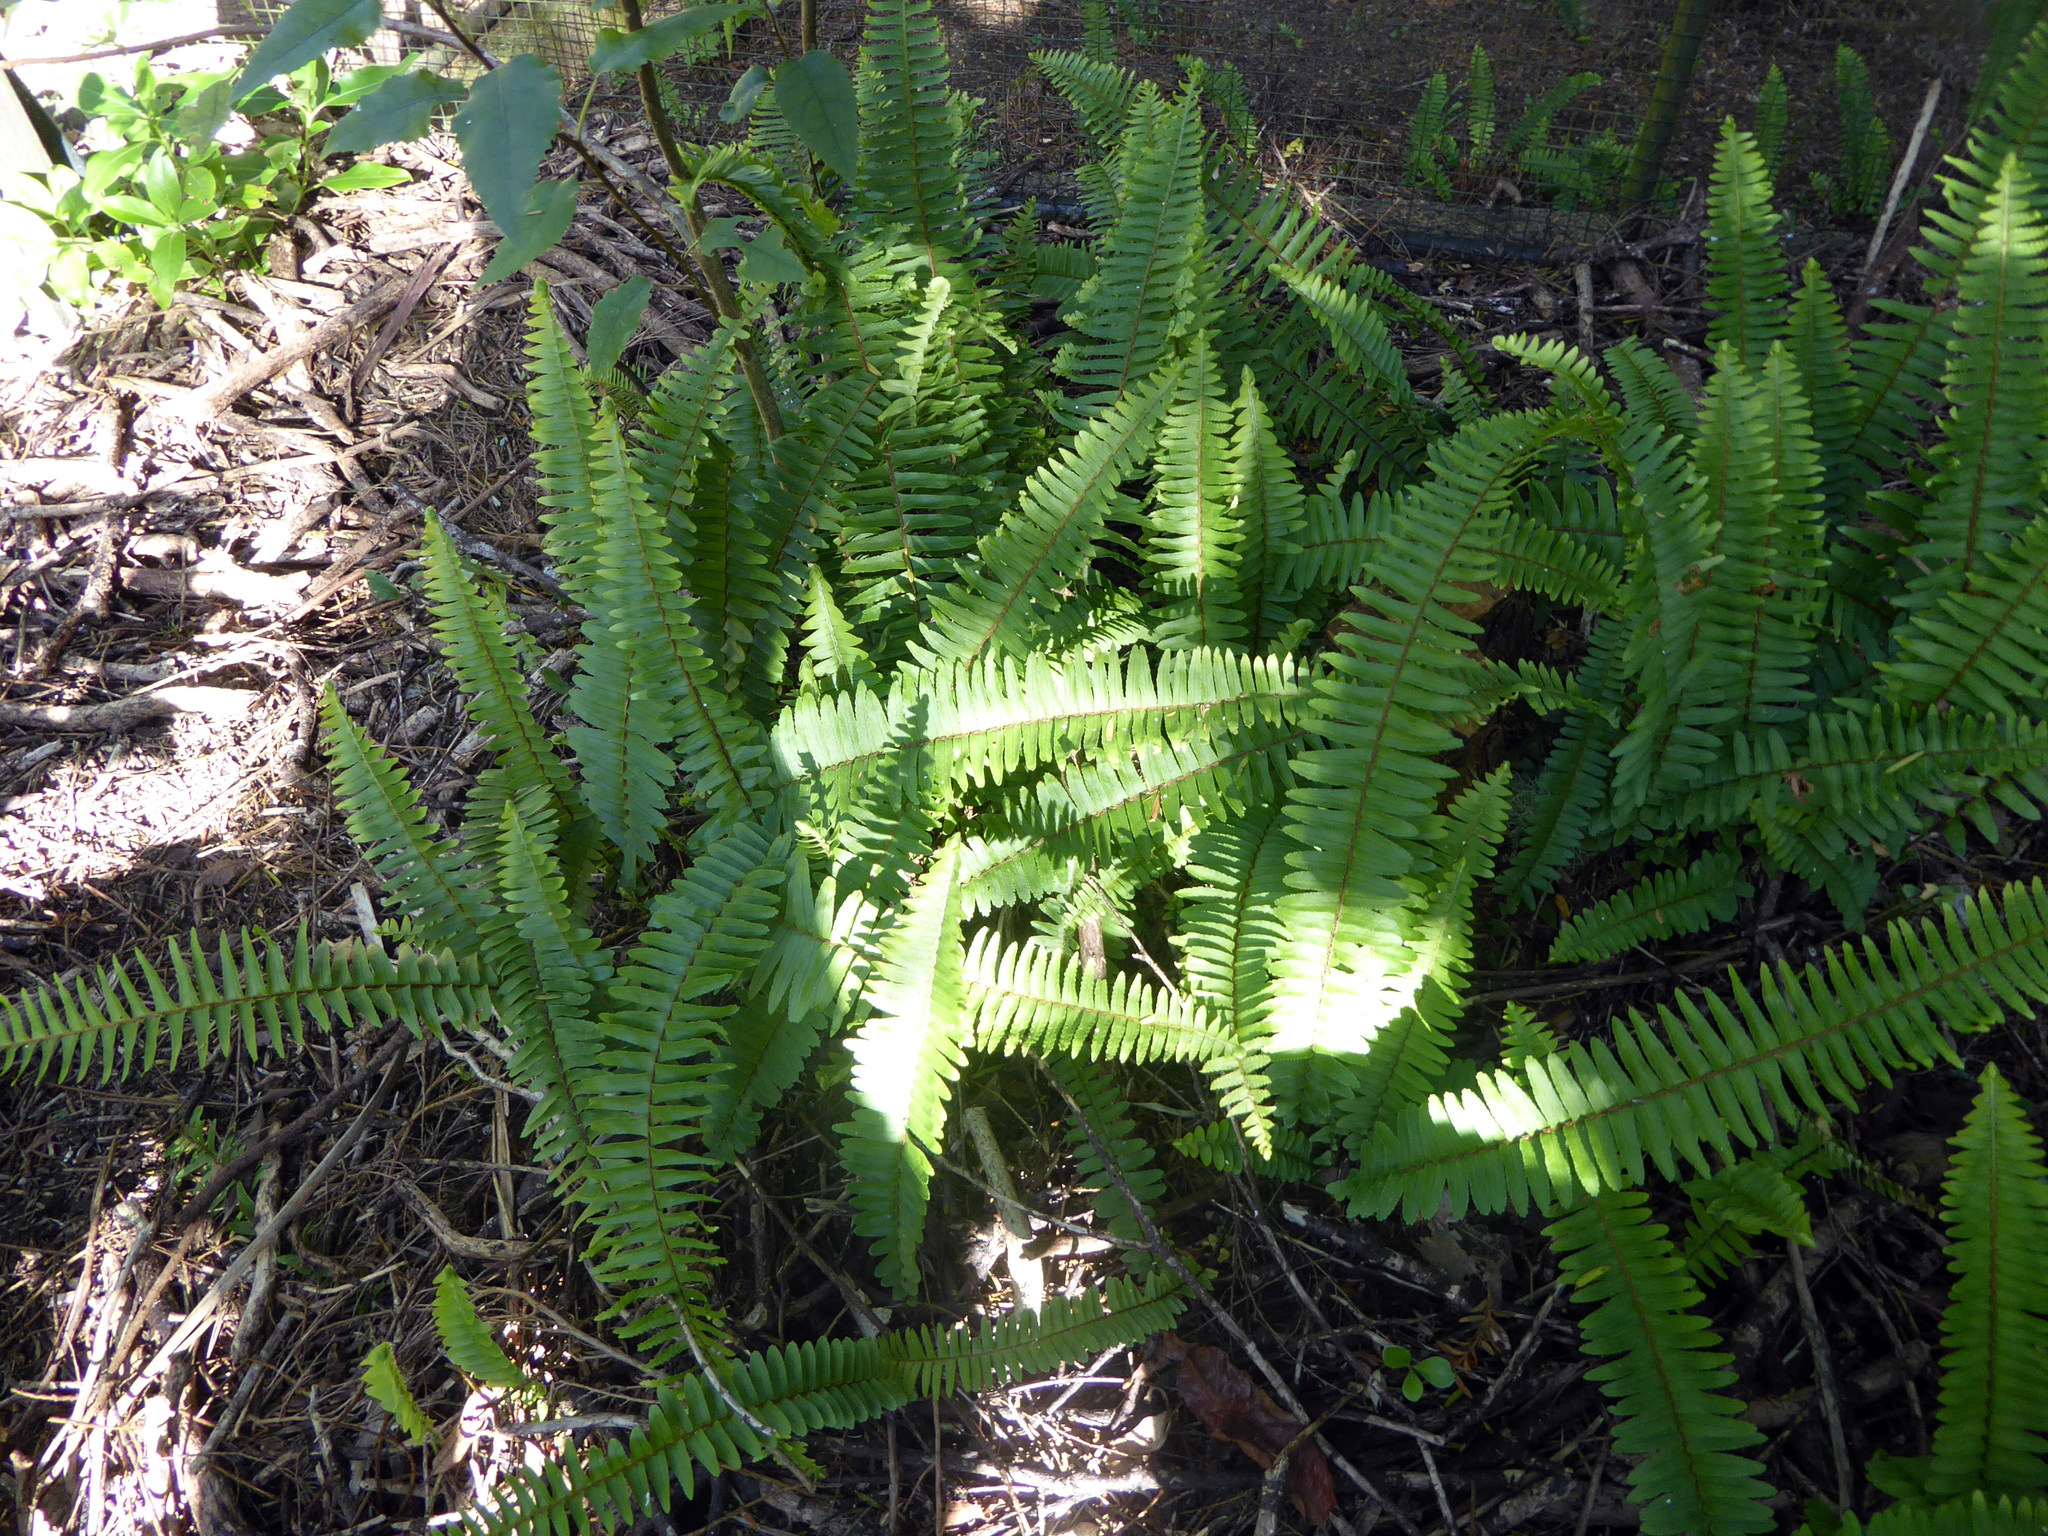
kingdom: Plantae
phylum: Tracheophyta
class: Polypodiopsida
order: Polypodiales
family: Nephrolepidaceae
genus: Nephrolepis
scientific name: Nephrolepis cordifolia
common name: Narrow swordfern
